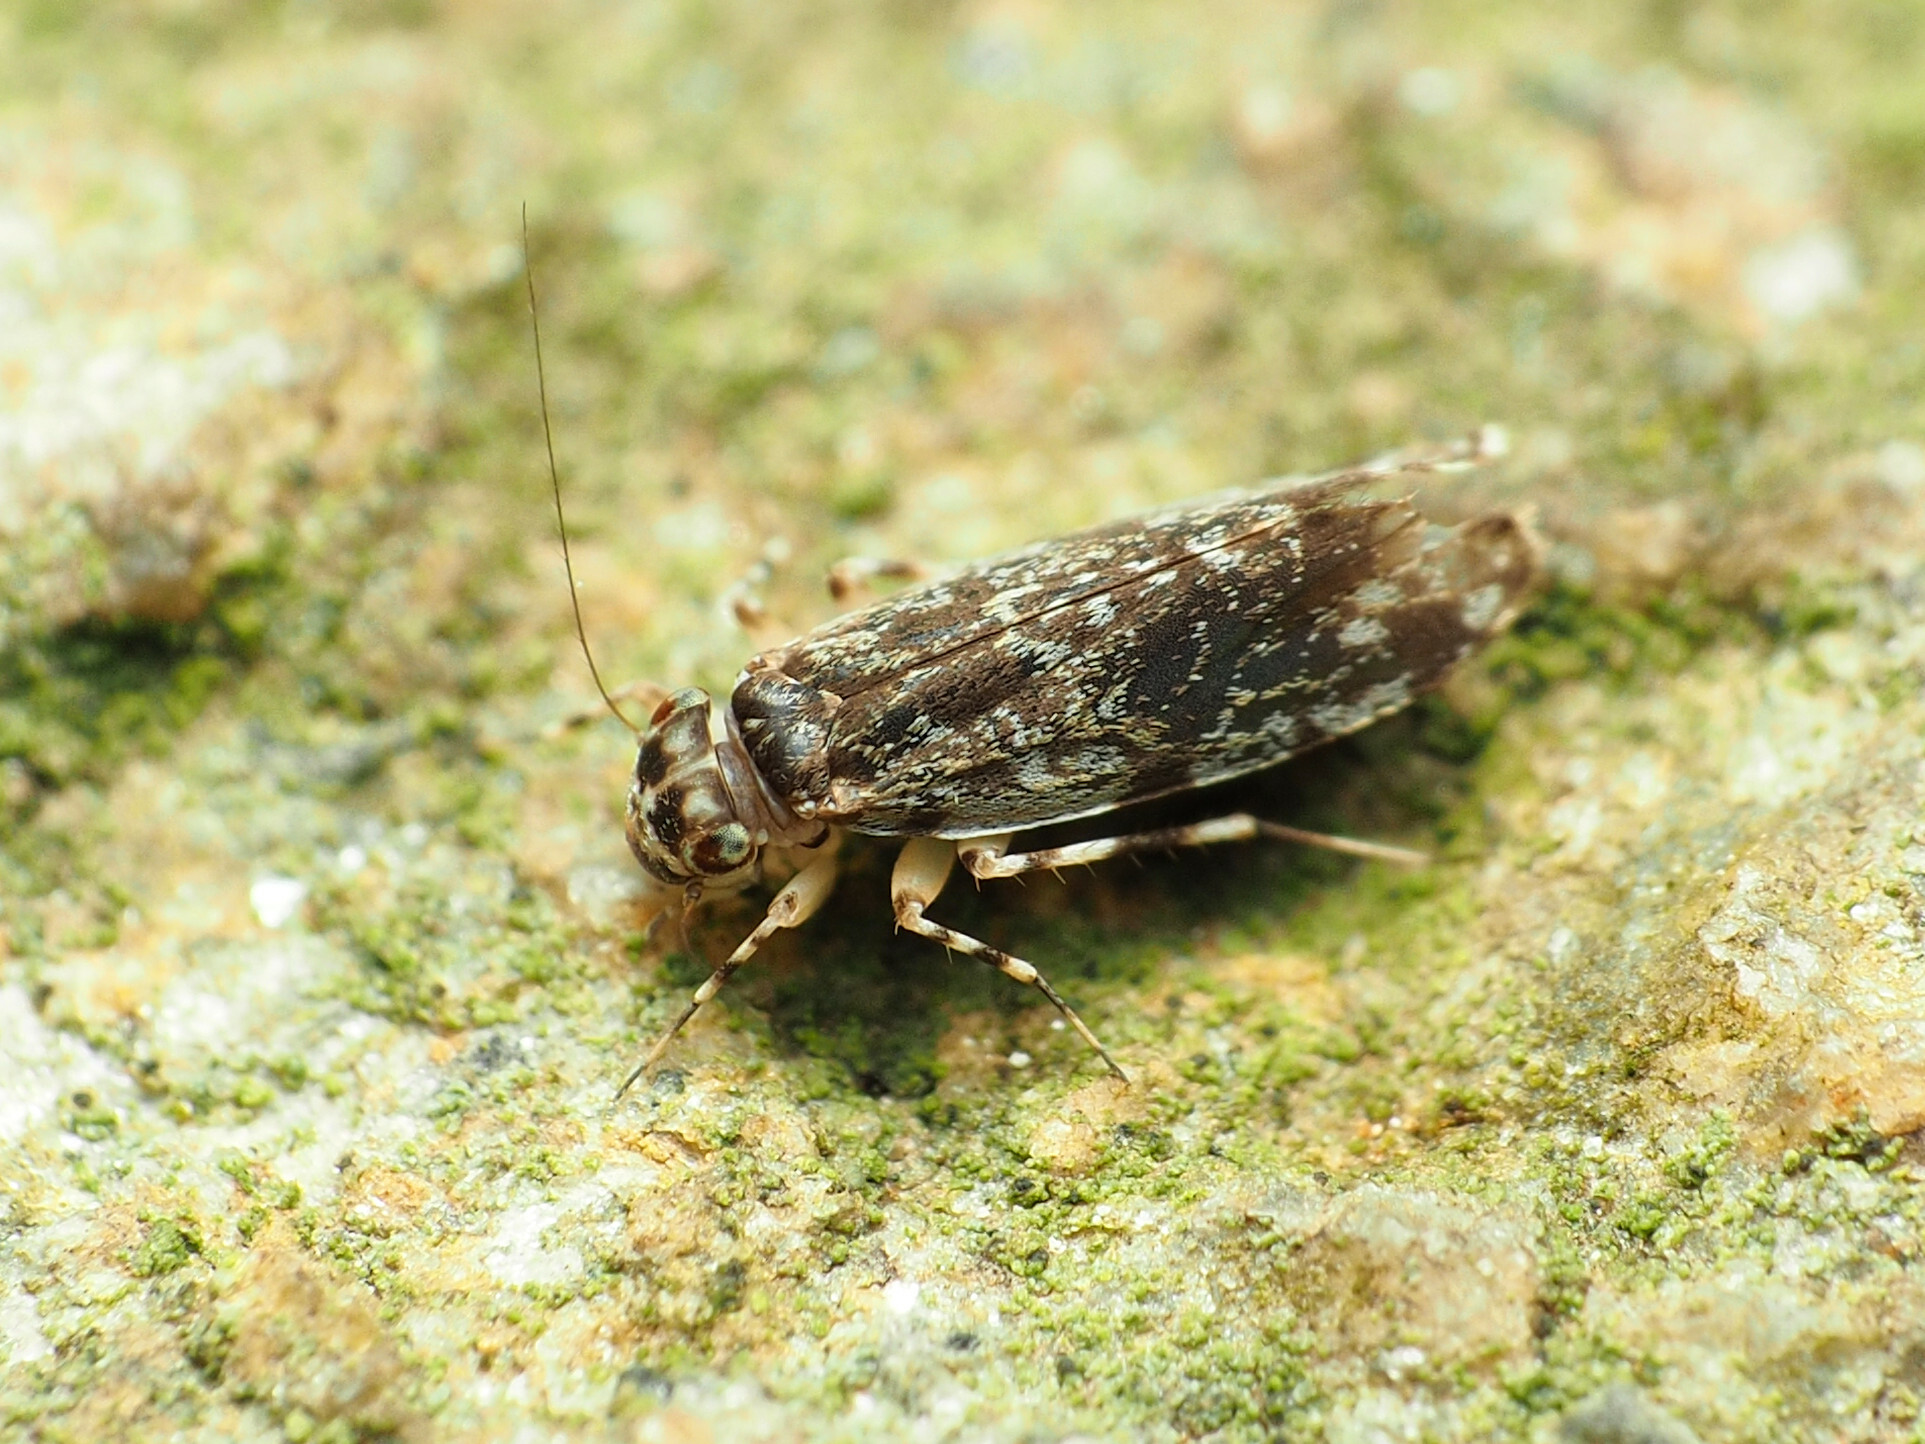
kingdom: Animalia
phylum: Arthropoda
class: Insecta
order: Psocodea
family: Amphientomidae
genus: Stimulopalpus
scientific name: Stimulopalpus japonicus
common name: Tropical bark louse
